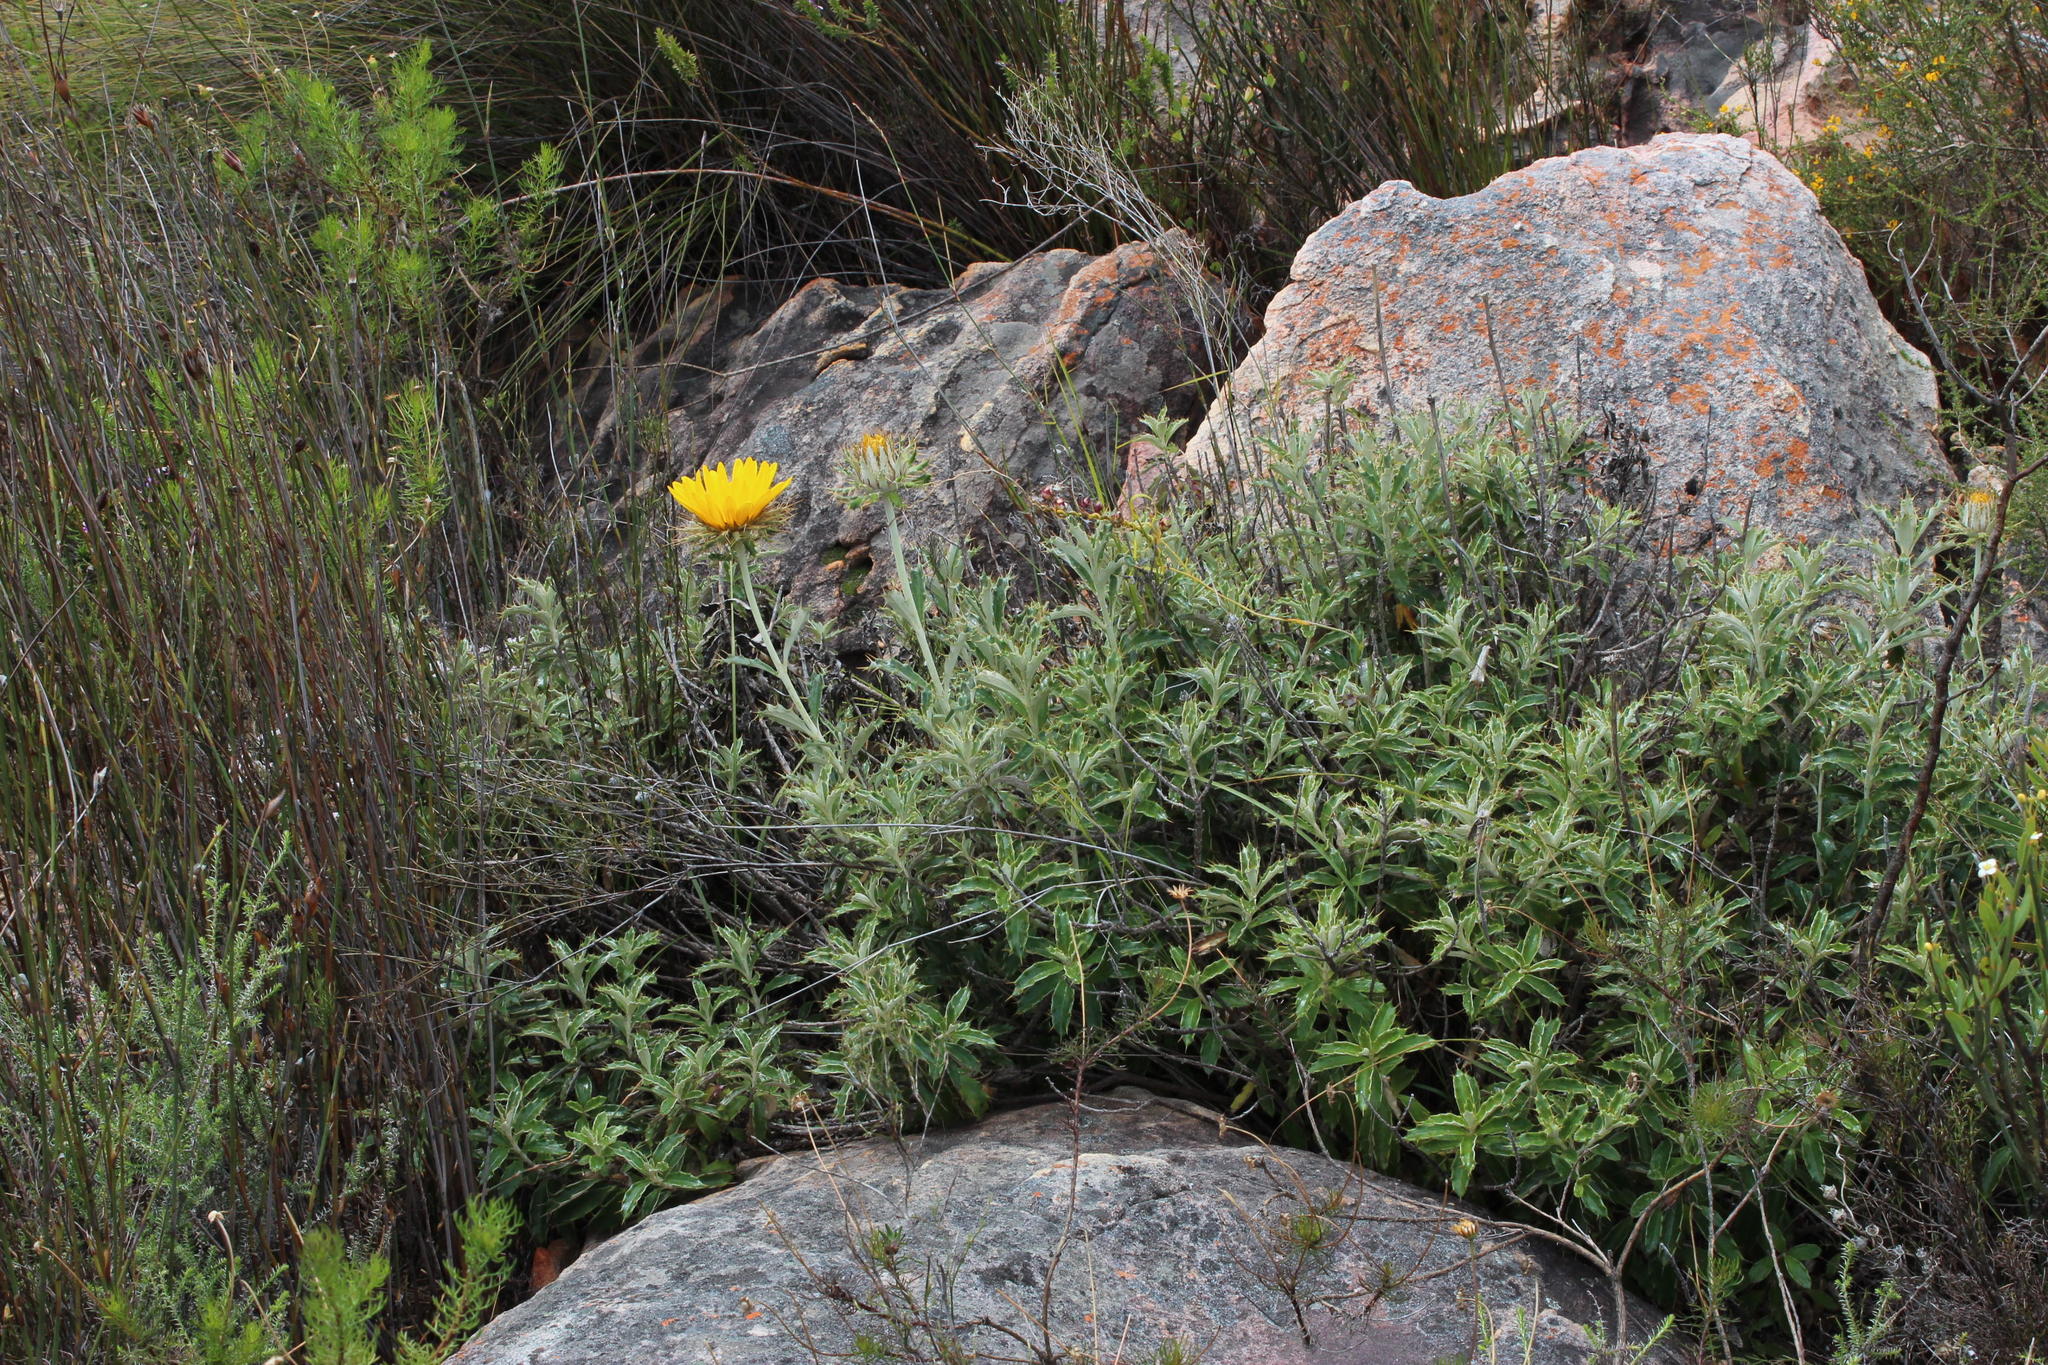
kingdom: Plantae
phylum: Tracheophyta
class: Magnoliopsida
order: Asterales
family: Asteraceae
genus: Berkheya
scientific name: Berkheya barbata
